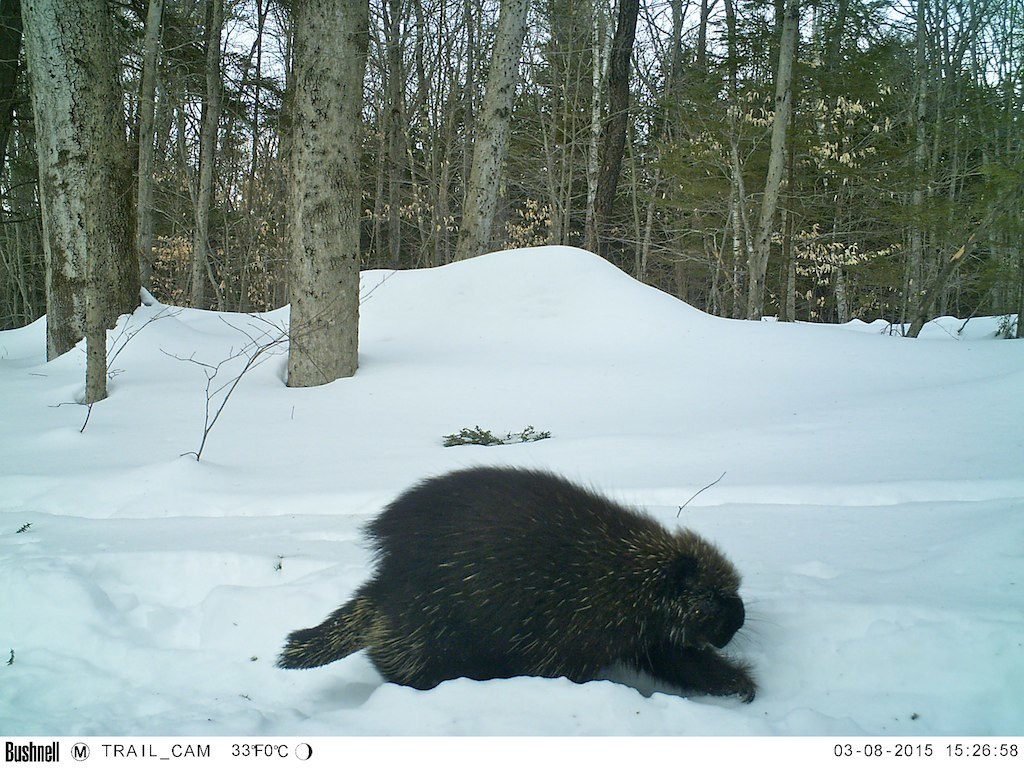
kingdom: Animalia
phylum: Chordata
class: Mammalia
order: Rodentia
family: Erethizontidae
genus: Erethizon
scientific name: Erethizon dorsatus
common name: North american porcupine
